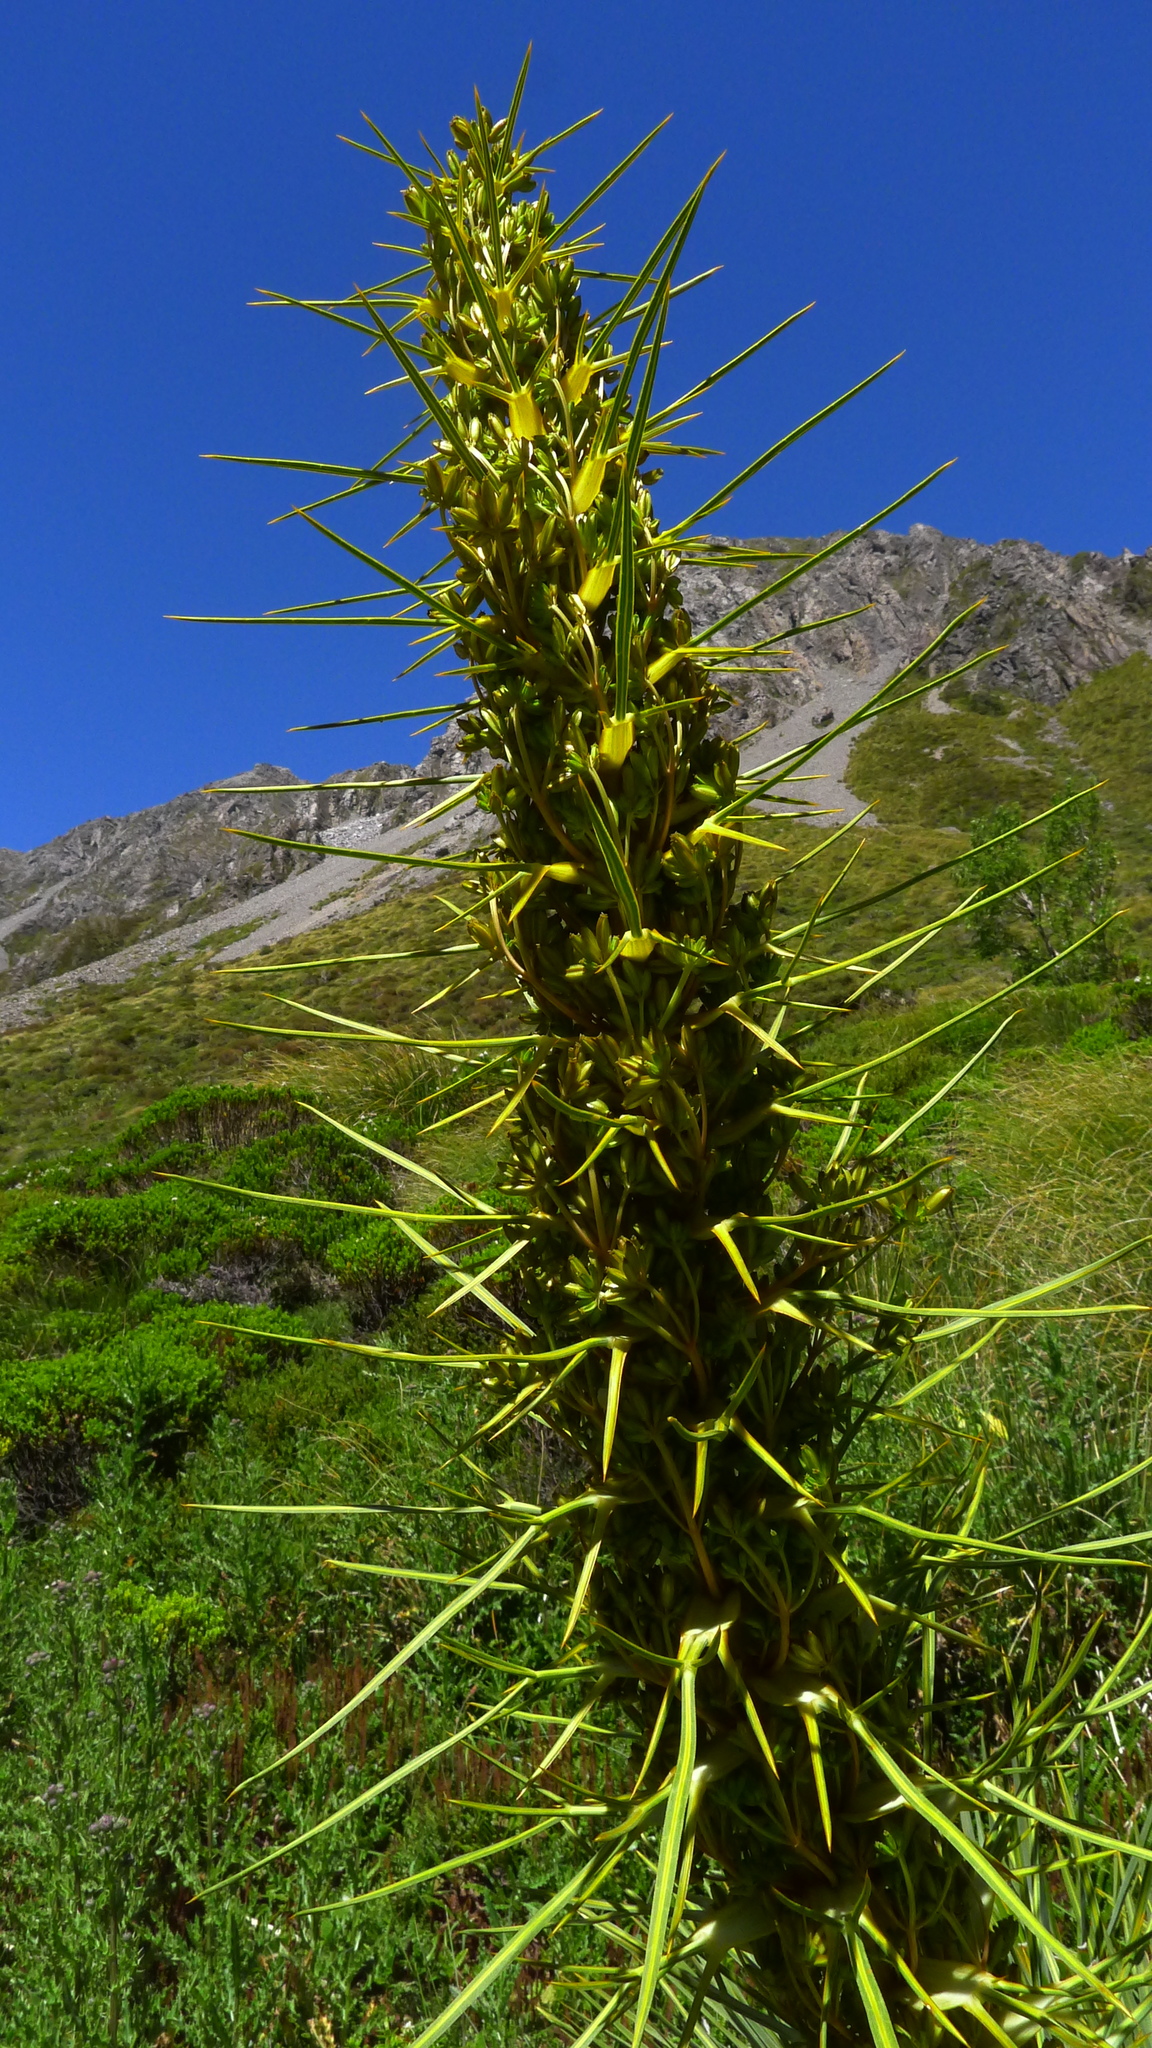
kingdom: Plantae
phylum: Tracheophyta
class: Magnoliopsida
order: Apiales
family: Apiaceae
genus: Aciphylla
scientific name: Aciphylla colensoi
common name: Colenso's spaniard
